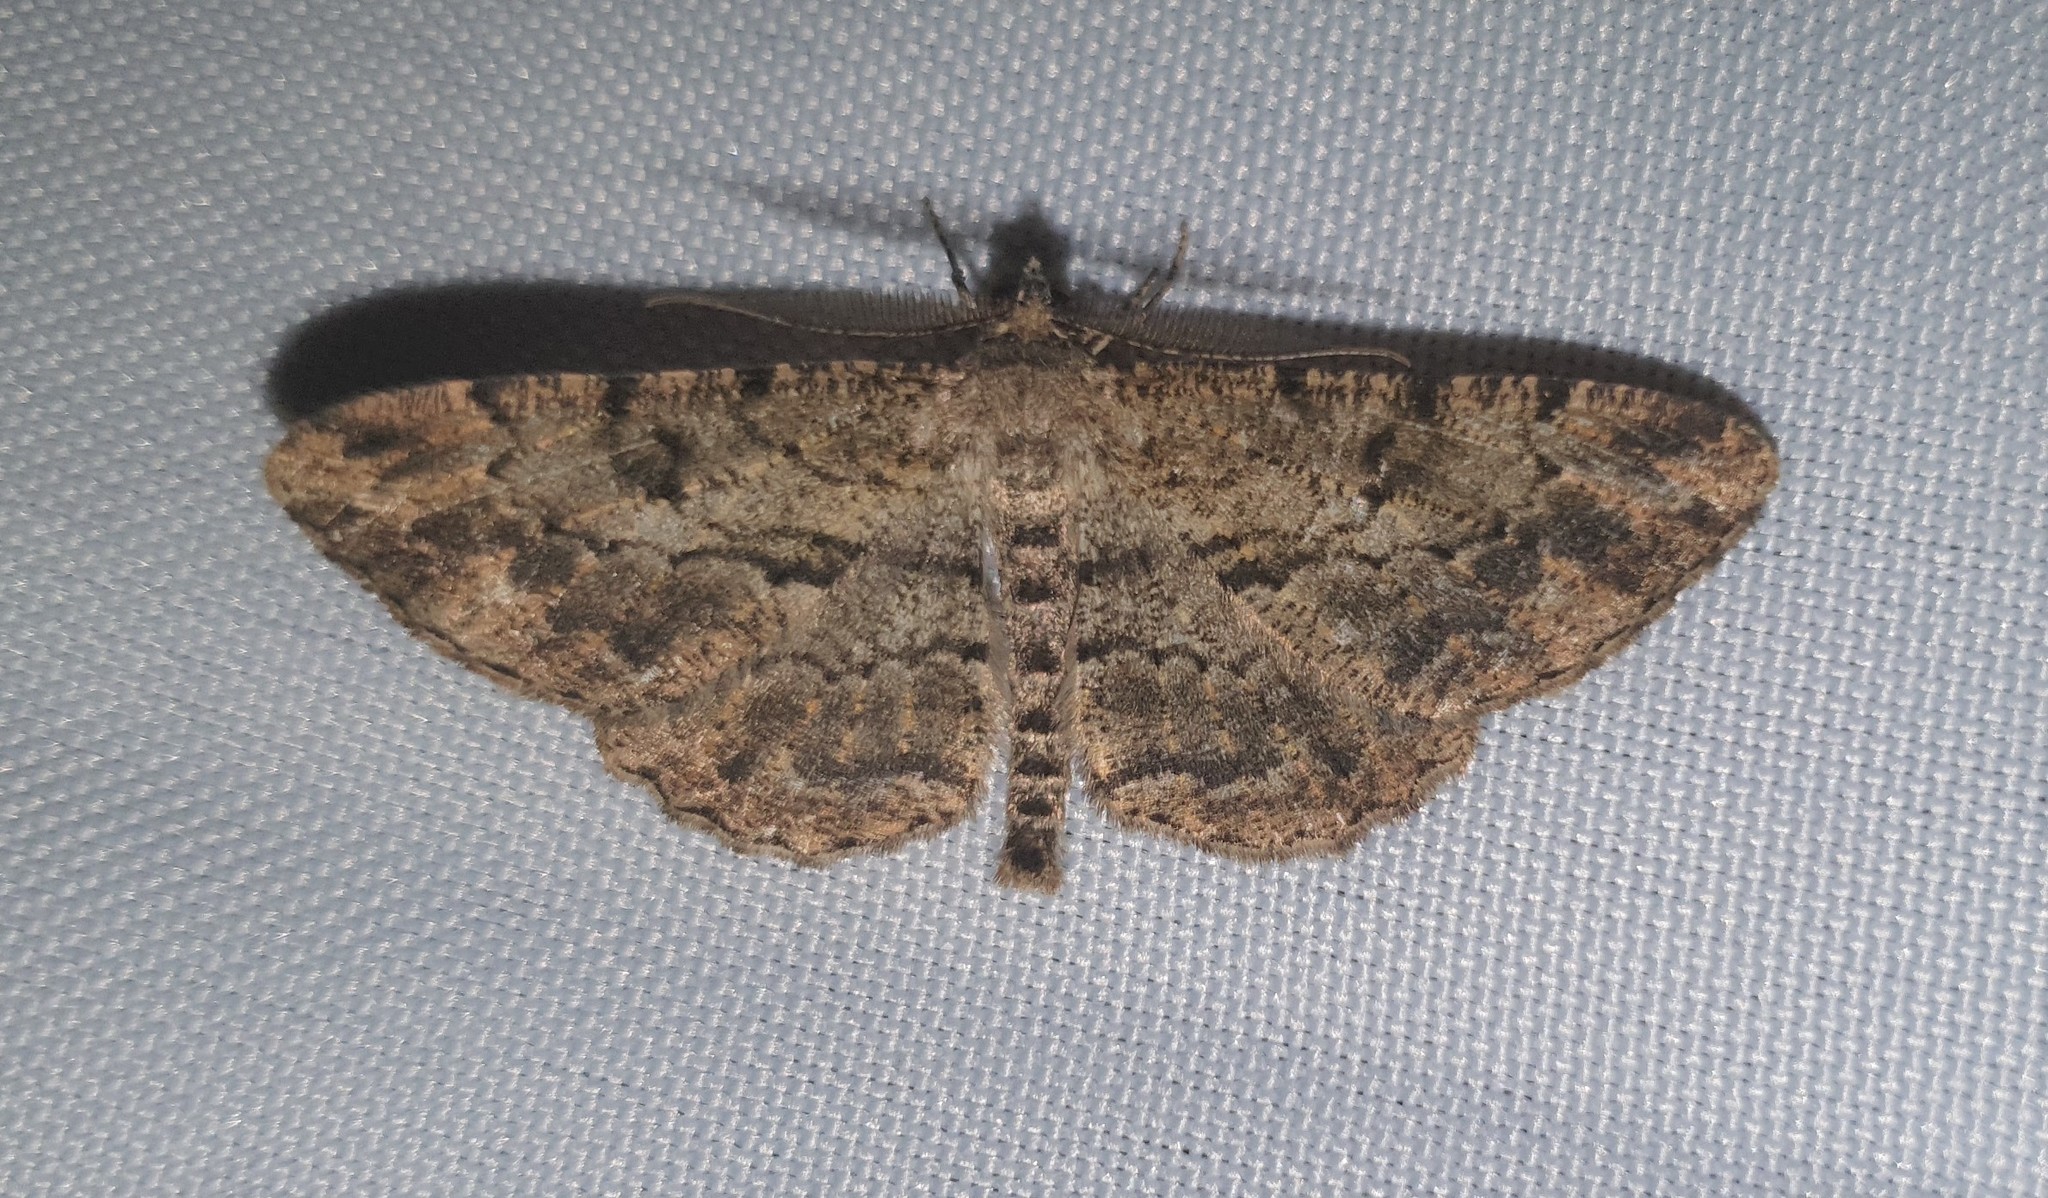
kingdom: Animalia
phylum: Arthropoda
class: Insecta
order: Lepidoptera
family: Geometridae
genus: Peribatodes
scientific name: Peribatodes rhomboidaria
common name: Willow beauty
